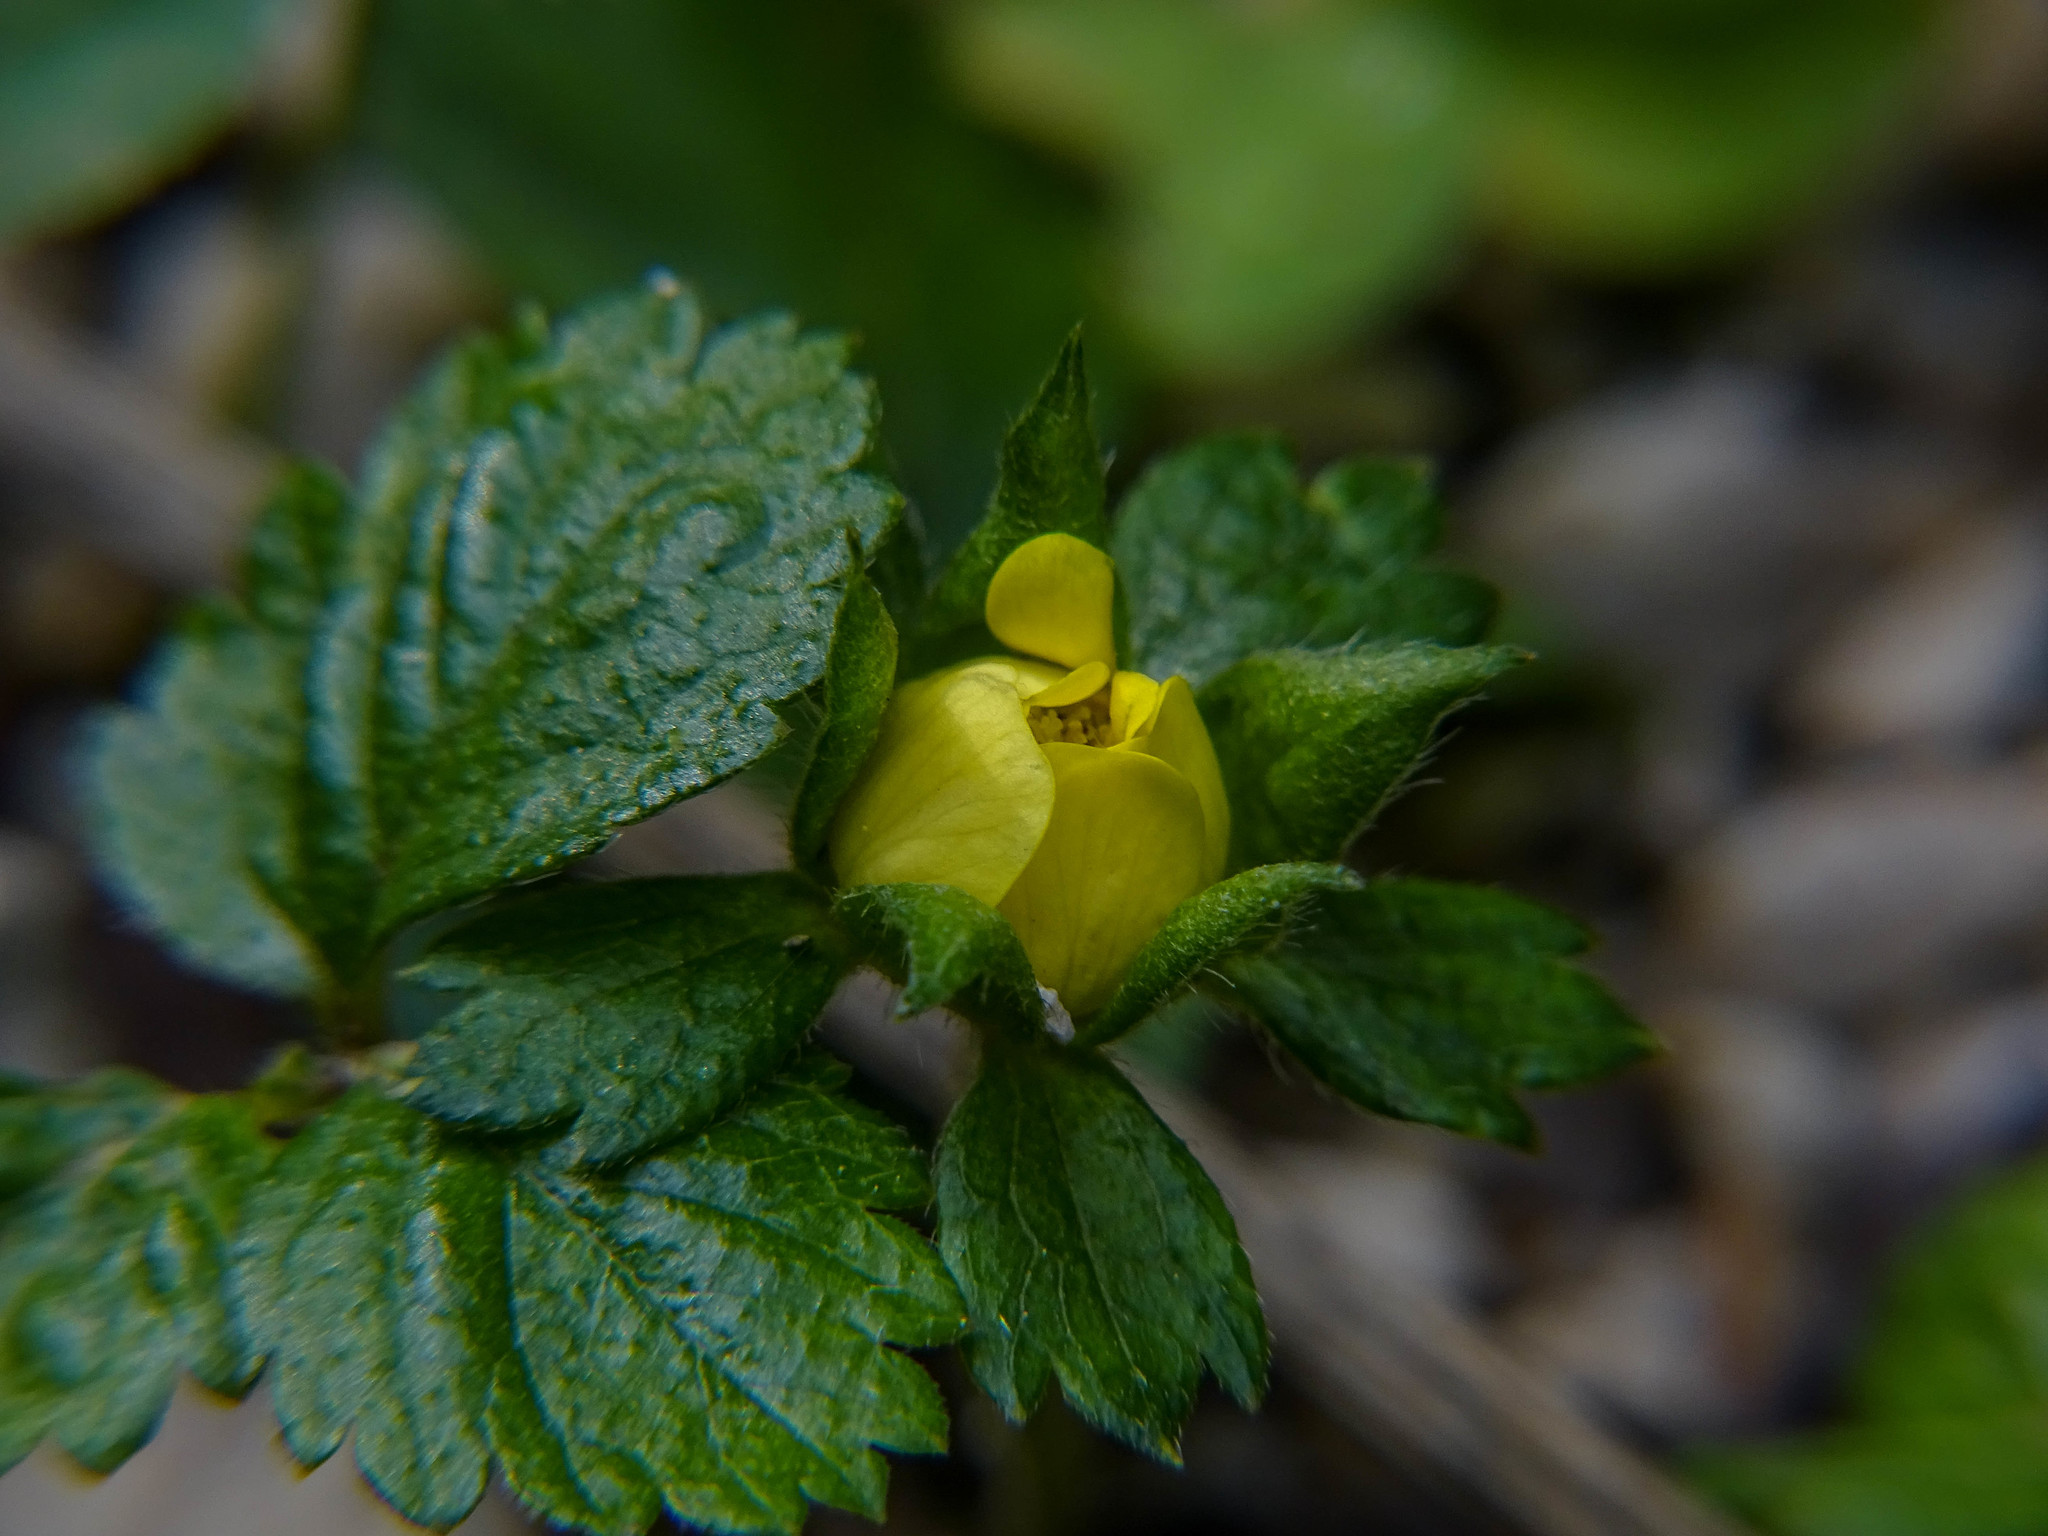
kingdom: Plantae
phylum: Tracheophyta
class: Magnoliopsida
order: Rosales
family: Rosaceae
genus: Potentilla
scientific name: Potentilla indica
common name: Yellow-flowered strawberry
